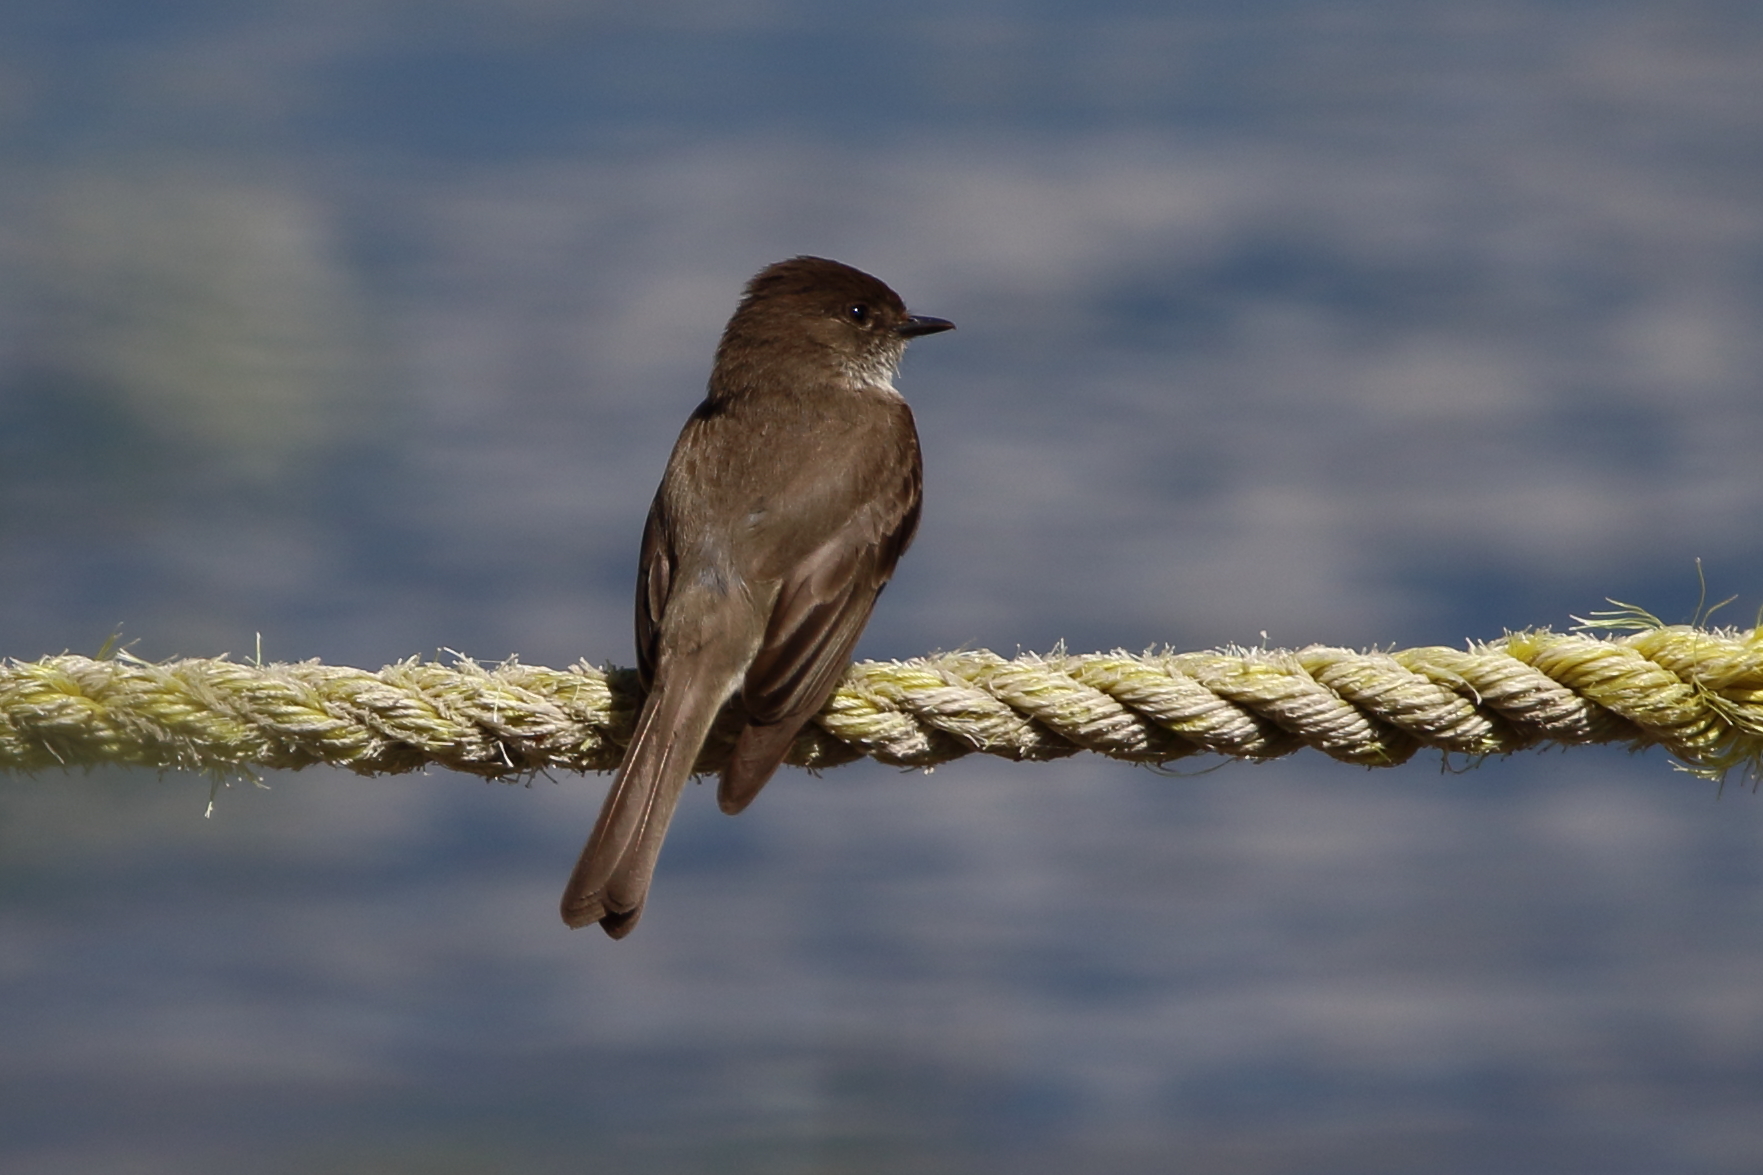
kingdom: Animalia
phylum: Chordata
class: Aves
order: Passeriformes
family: Tyrannidae
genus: Sayornis
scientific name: Sayornis phoebe
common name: Eastern phoebe
